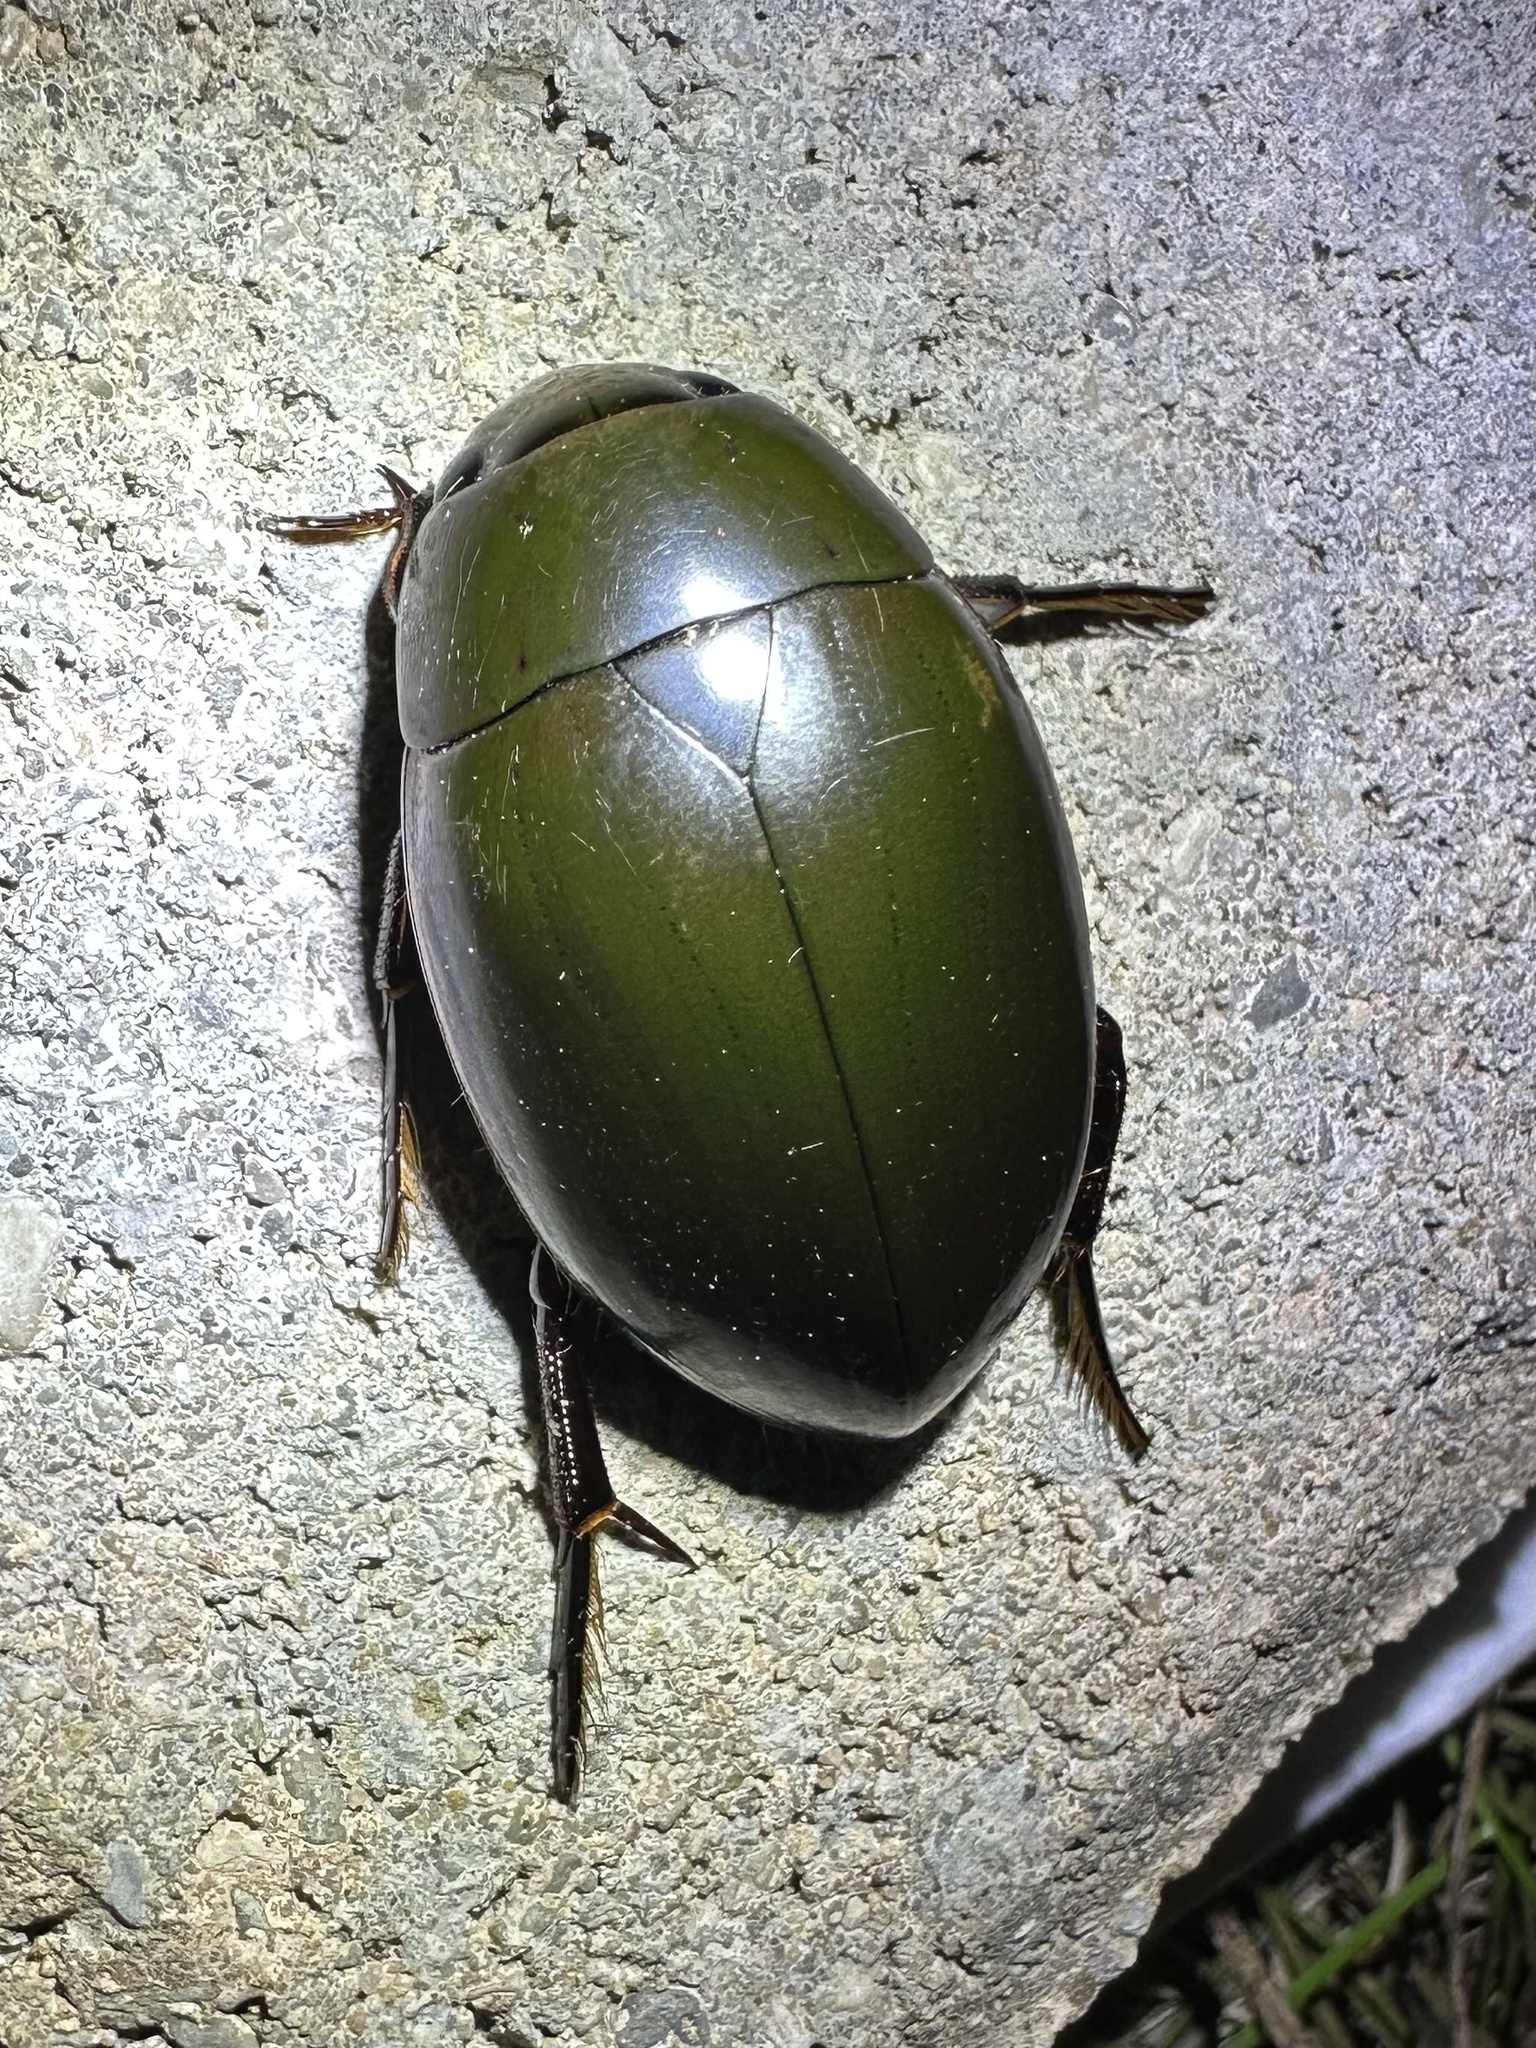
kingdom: Animalia
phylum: Arthropoda
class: Insecta
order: Coleoptera
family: Hydrophilidae
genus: Hydrophilus
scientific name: Hydrophilus ovatus
